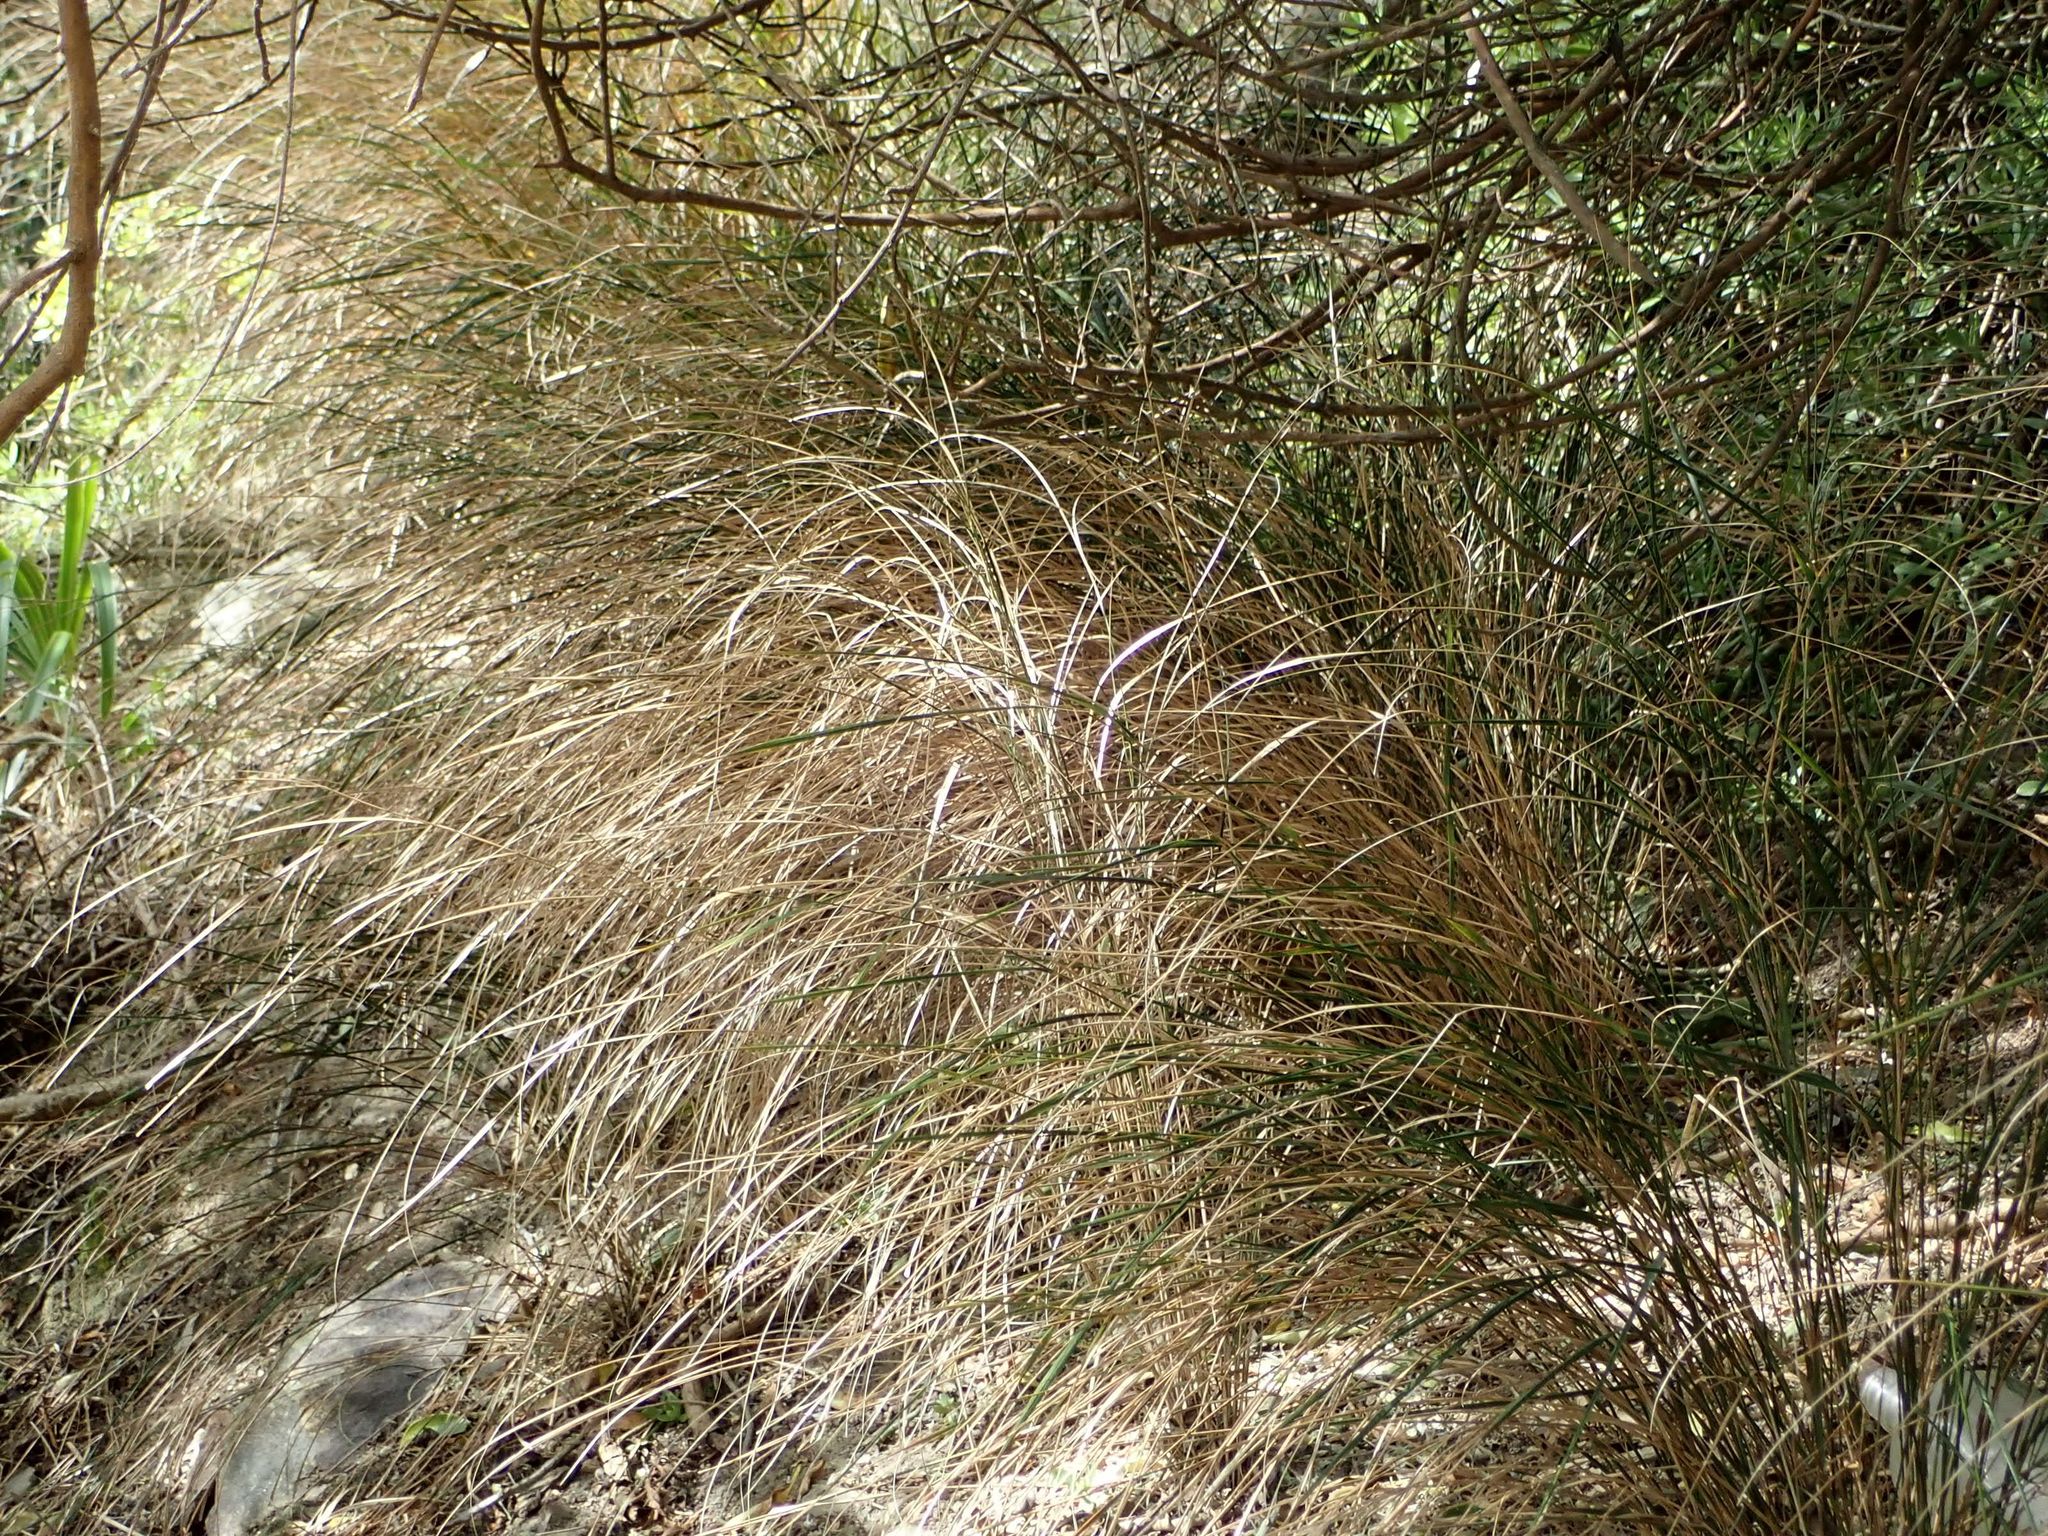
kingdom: Plantae
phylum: Tracheophyta
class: Liliopsida
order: Poales
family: Poaceae
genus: Anemanthele
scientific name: Anemanthele lessoniana
